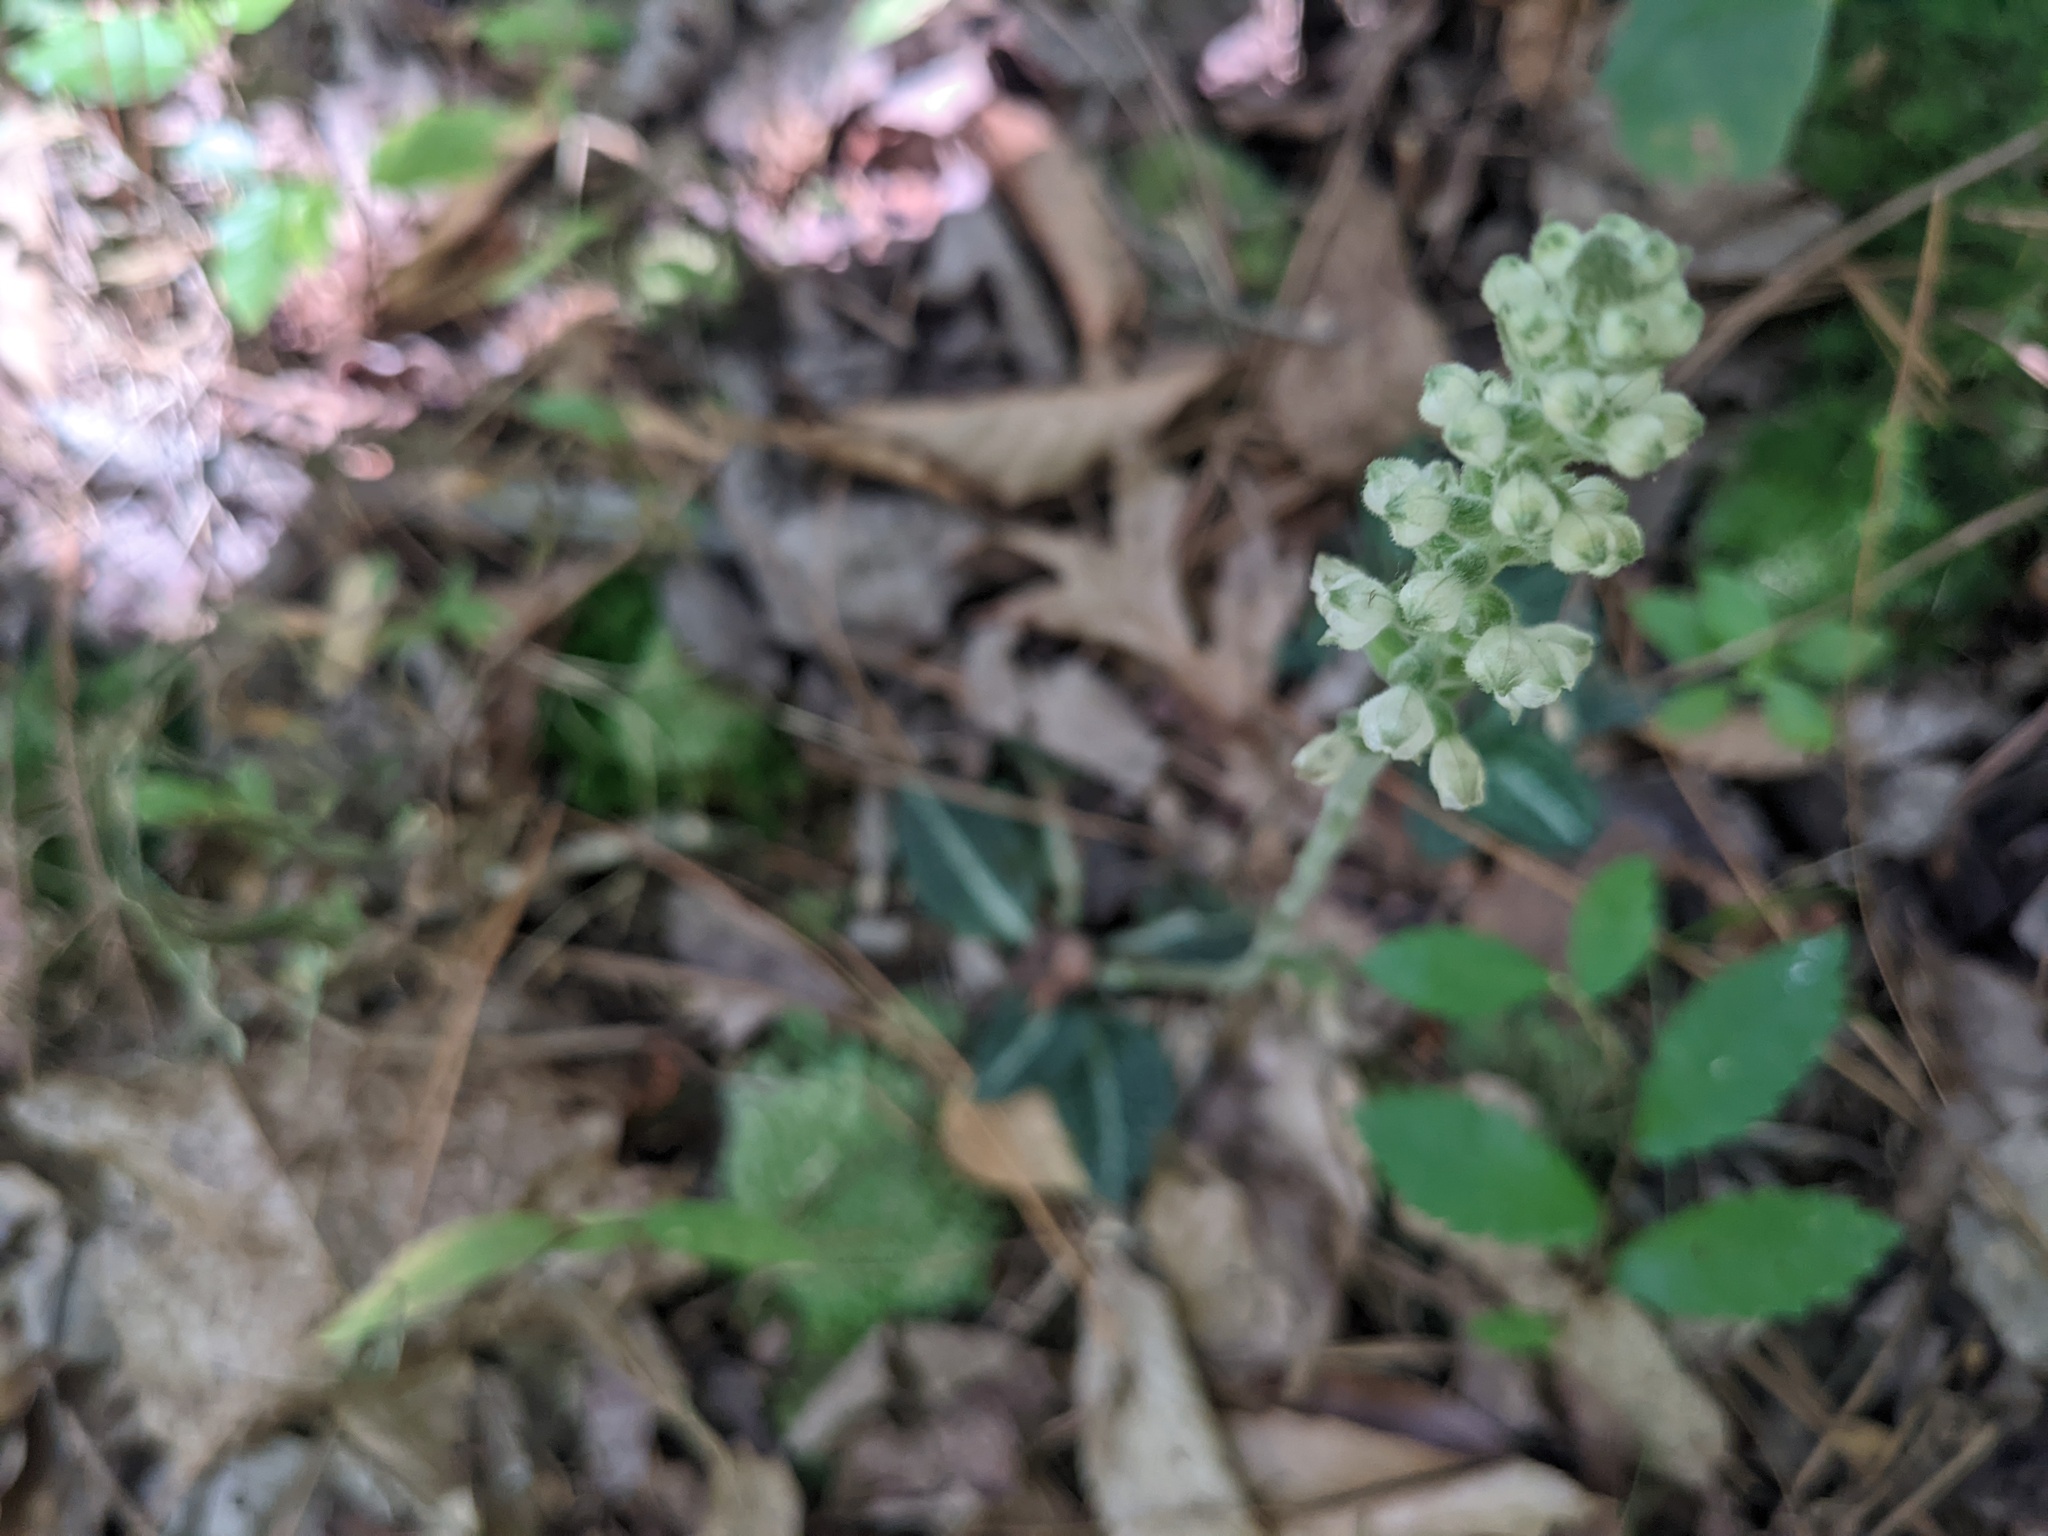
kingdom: Plantae
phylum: Tracheophyta
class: Liliopsida
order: Asparagales
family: Orchidaceae
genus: Goodyera
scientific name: Goodyera pubescens
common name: Downy rattlesnake-plantain
